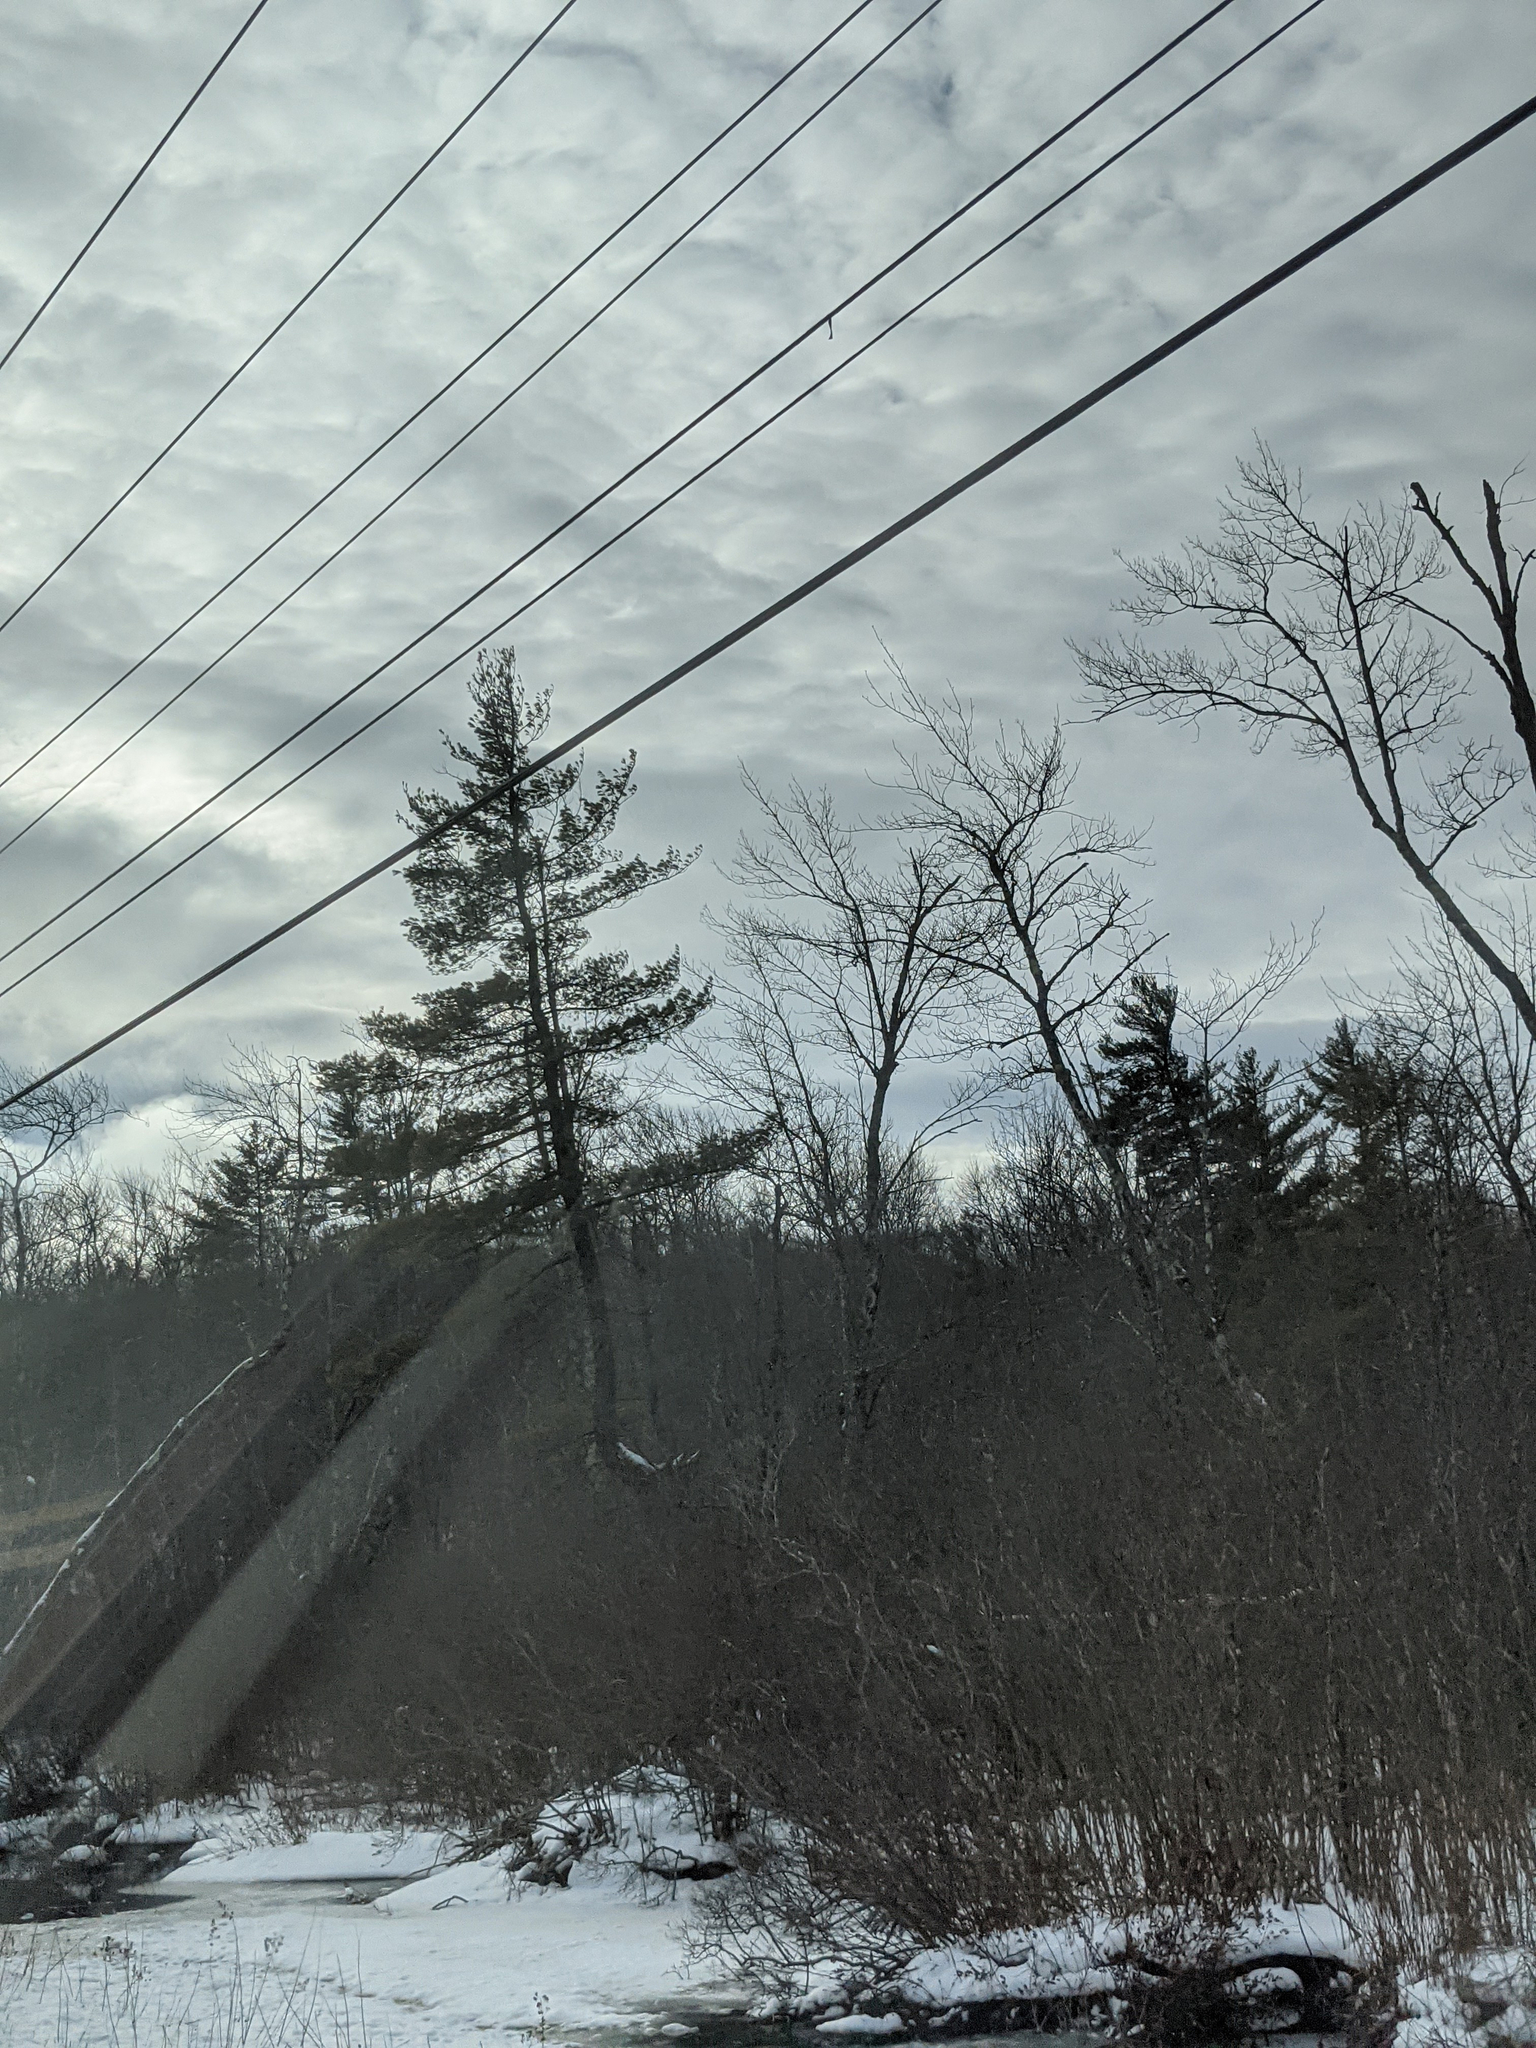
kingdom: Plantae
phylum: Tracheophyta
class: Pinopsida
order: Pinales
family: Pinaceae
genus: Pinus
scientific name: Pinus strobus
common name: Weymouth pine
